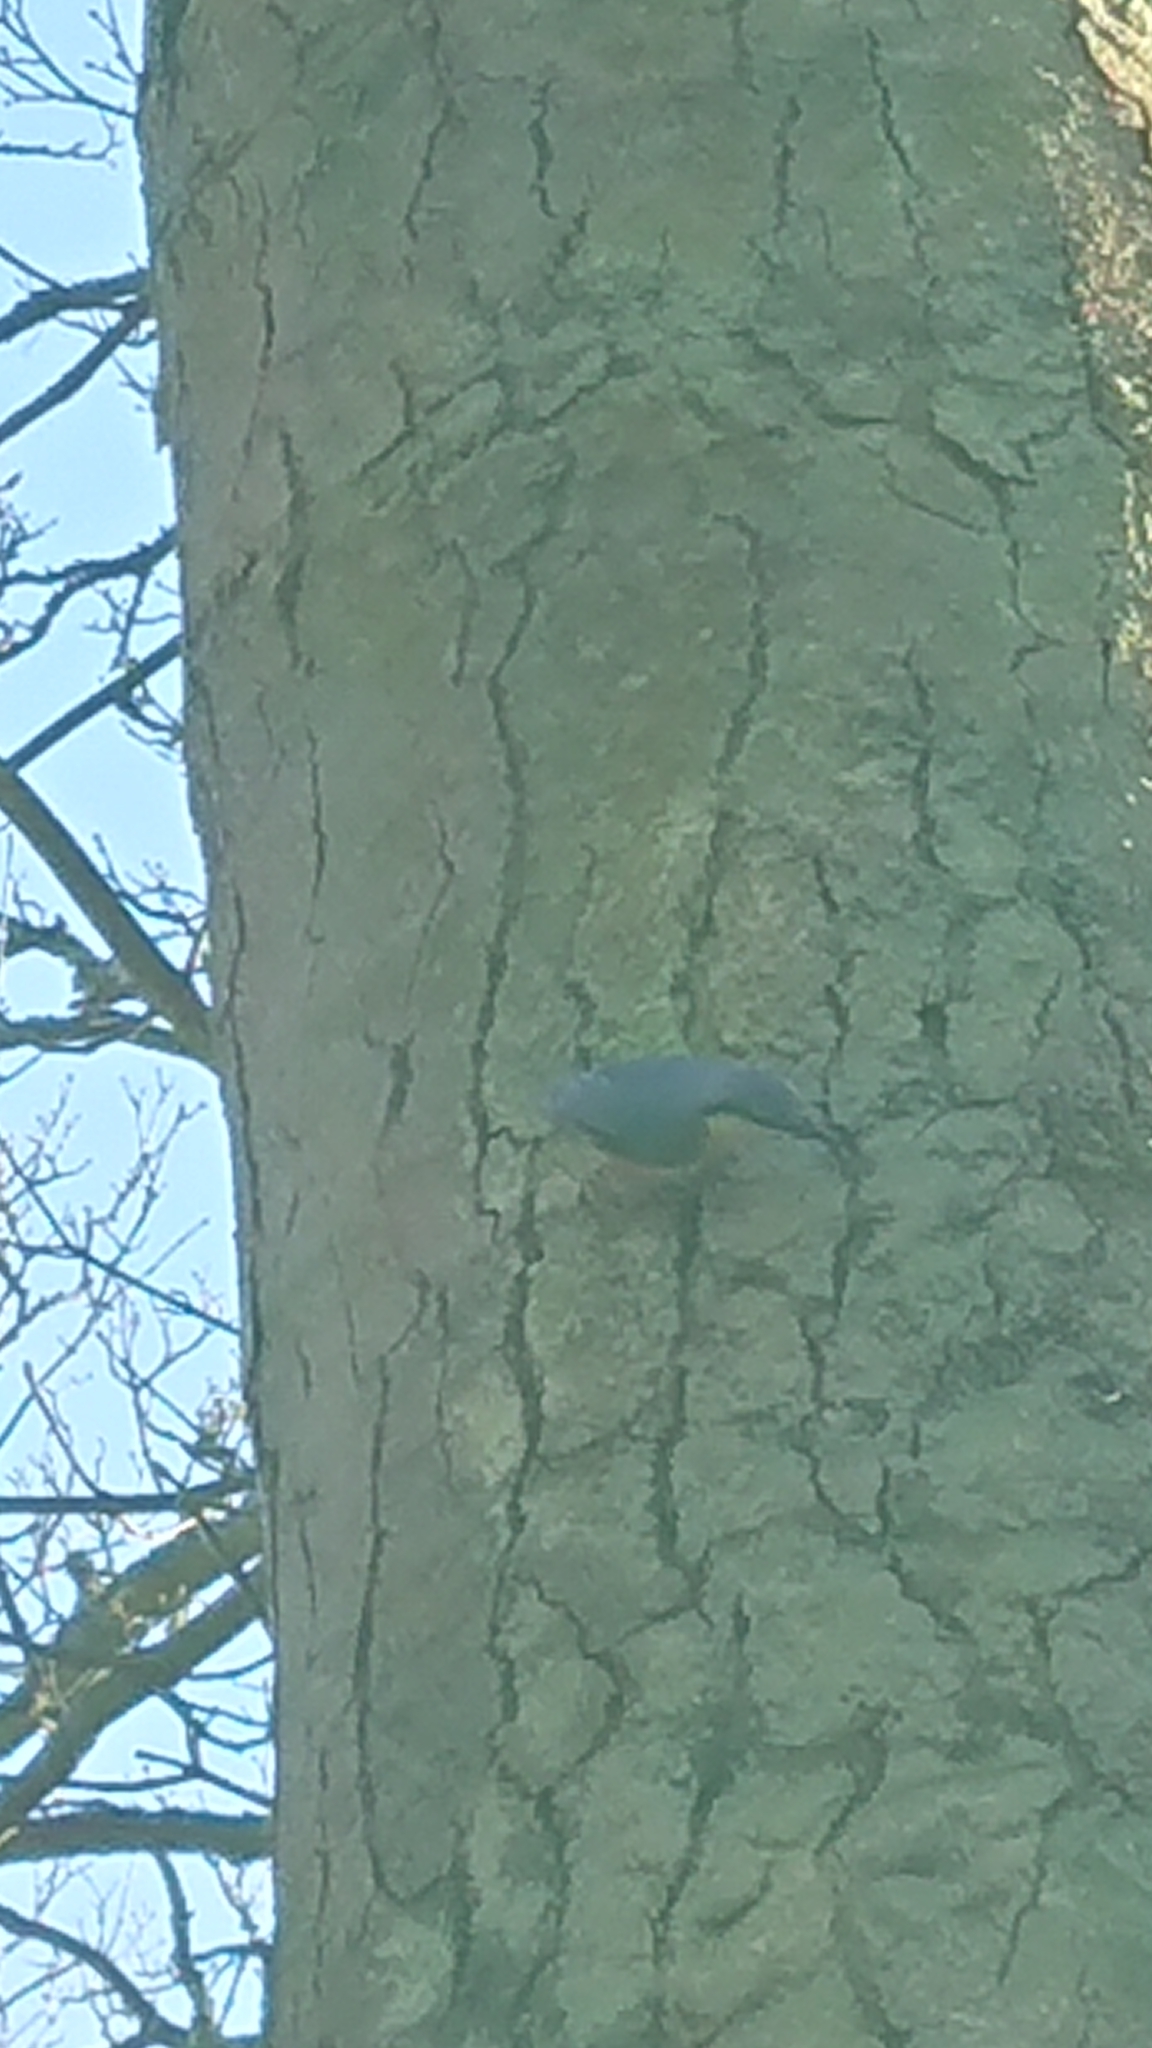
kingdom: Animalia
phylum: Chordata
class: Aves
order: Passeriformes
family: Sittidae
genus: Sitta
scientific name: Sitta europaea
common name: Eurasian nuthatch
